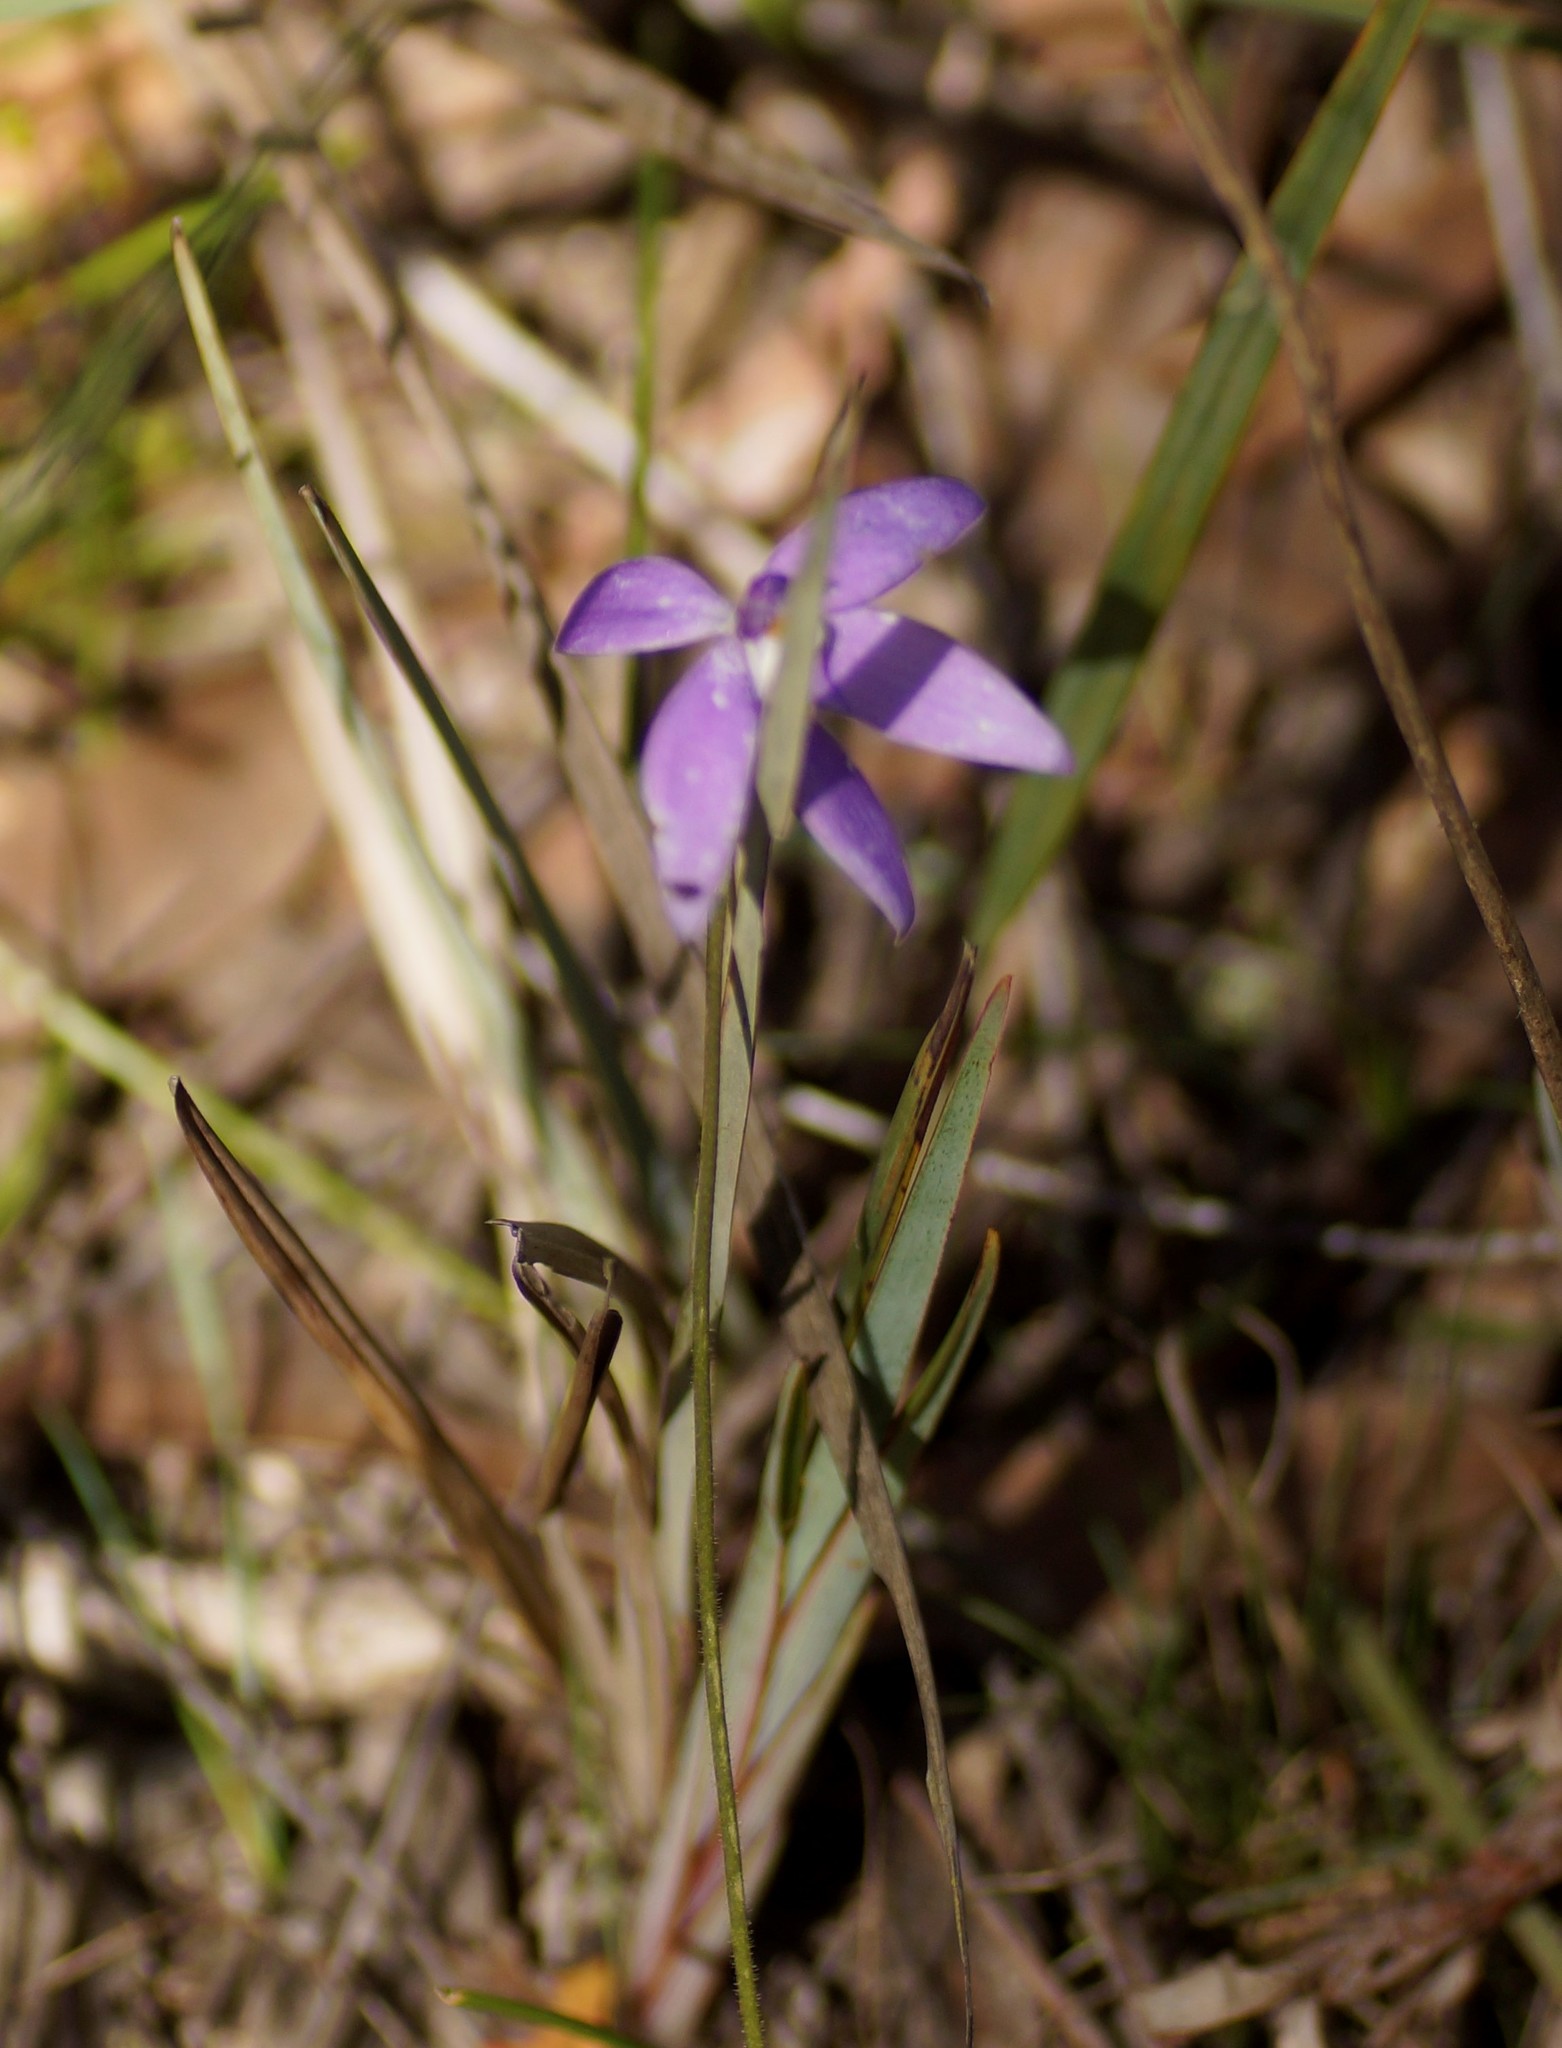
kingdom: Plantae
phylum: Tracheophyta
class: Liliopsida
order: Asparagales
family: Orchidaceae
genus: Caladenia
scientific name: Caladenia major
